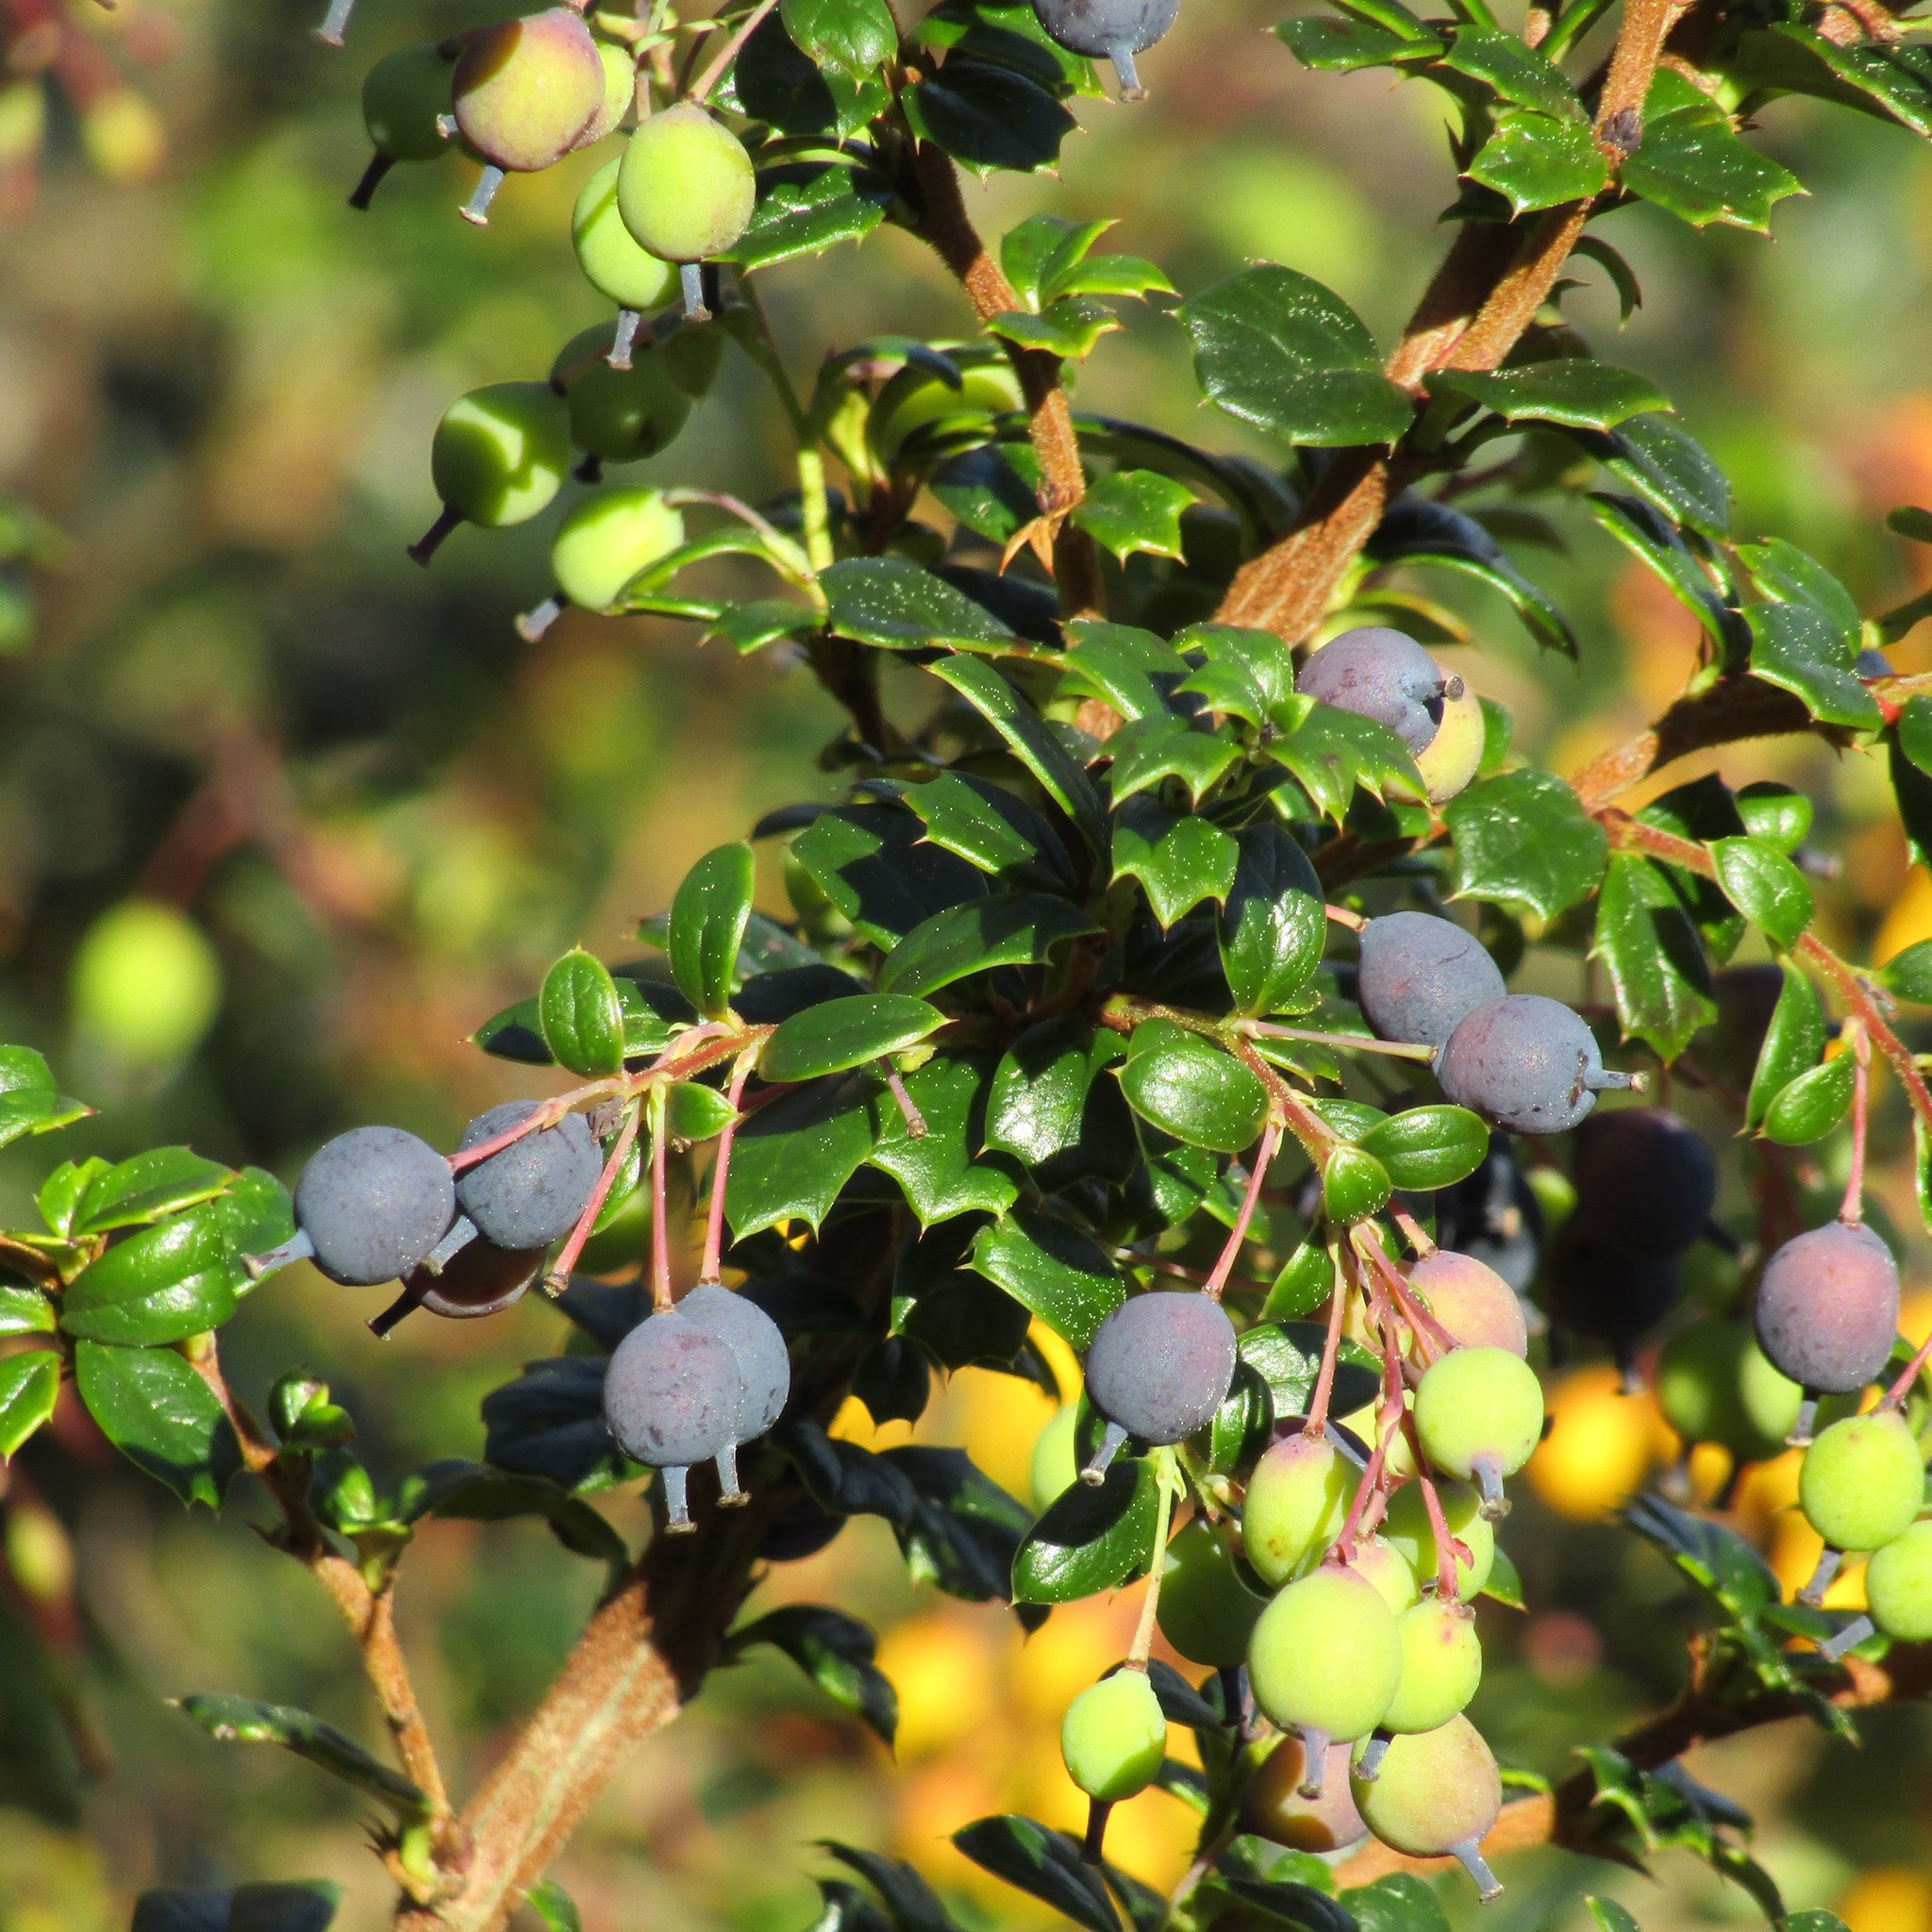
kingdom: Plantae
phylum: Tracheophyta
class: Magnoliopsida
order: Ranunculales
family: Berberidaceae
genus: Berberis
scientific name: Berberis darwinii
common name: Darwin's barberry
